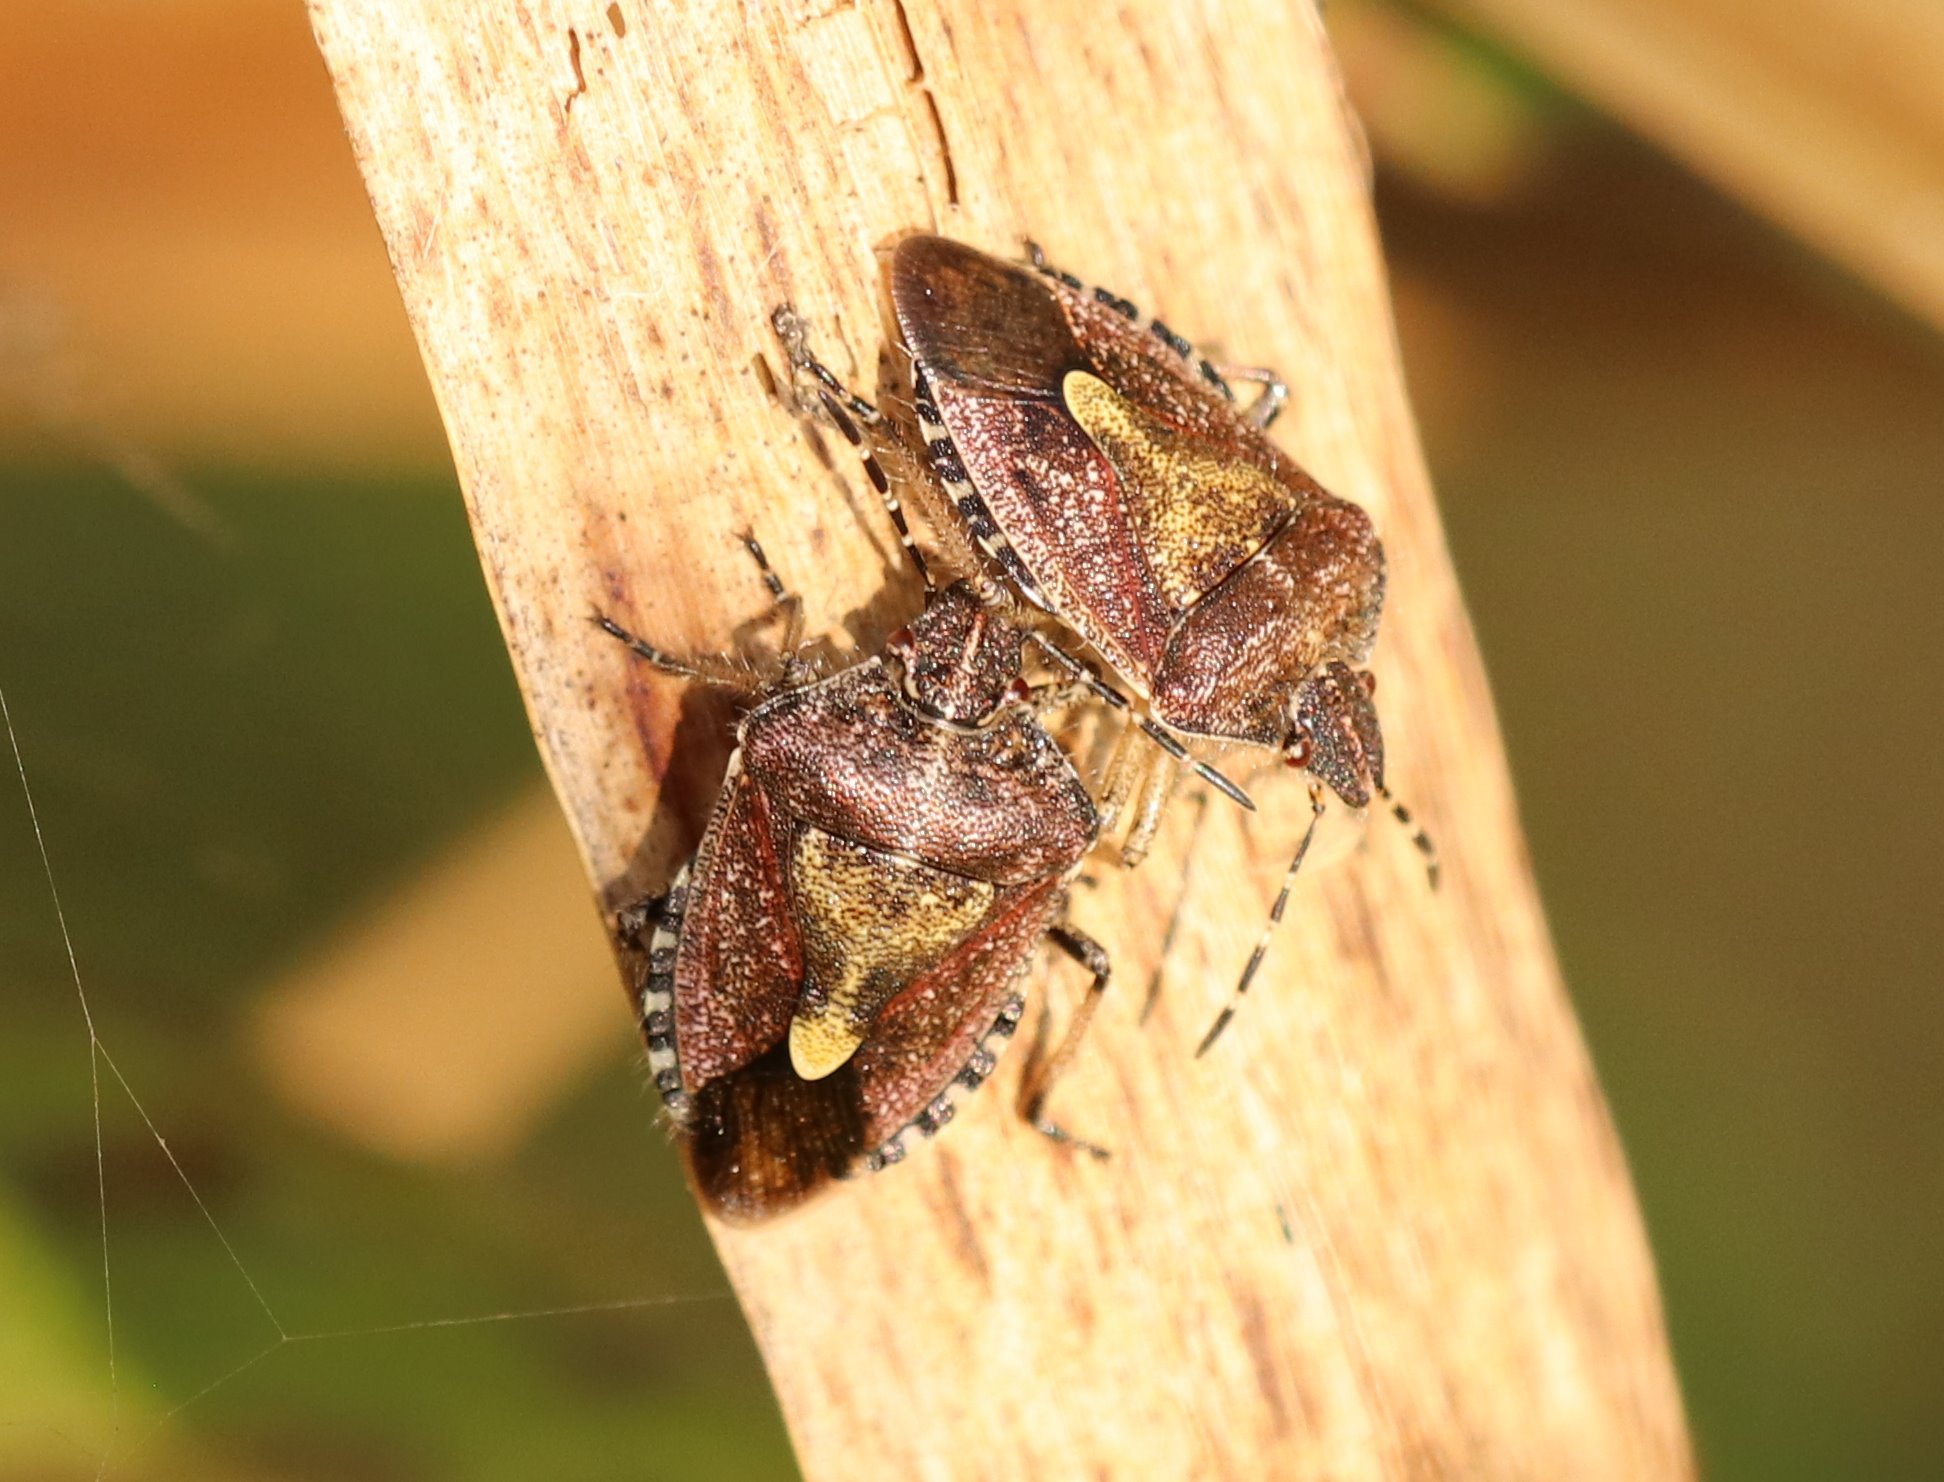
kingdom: Animalia
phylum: Arthropoda
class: Insecta
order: Hemiptera
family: Pentatomidae
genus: Dolycoris
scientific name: Dolycoris baccarum
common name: Sloe bug
